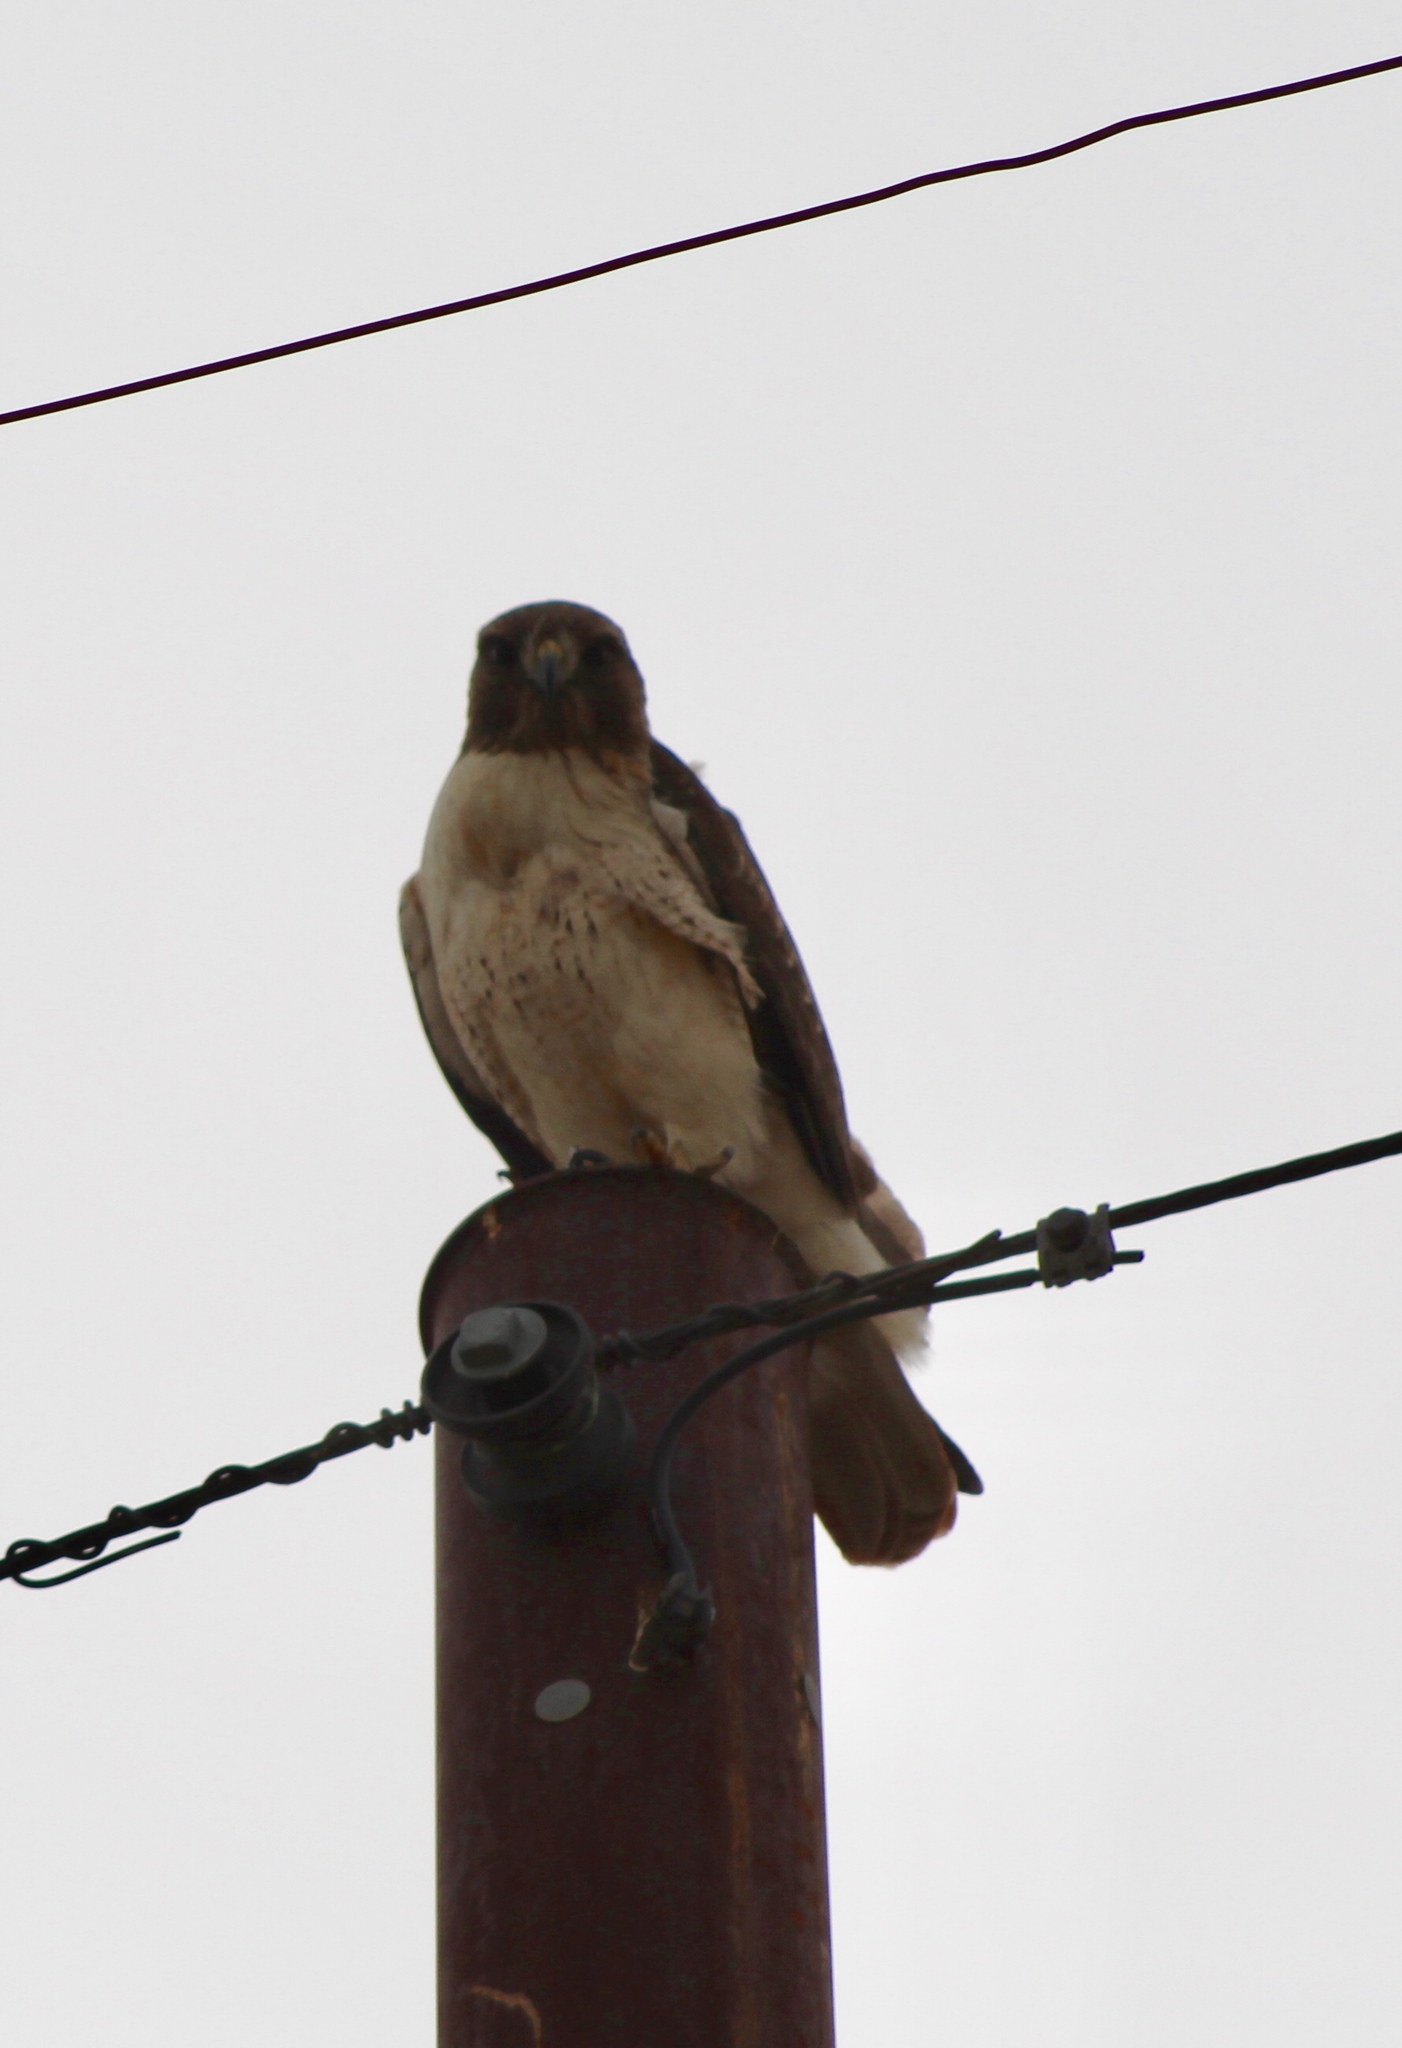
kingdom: Animalia
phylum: Chordata
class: Aves
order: Accipitriformes
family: Accipitridae
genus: Buteo
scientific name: Buteo jamaicensis
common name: Red-tailed hawk
